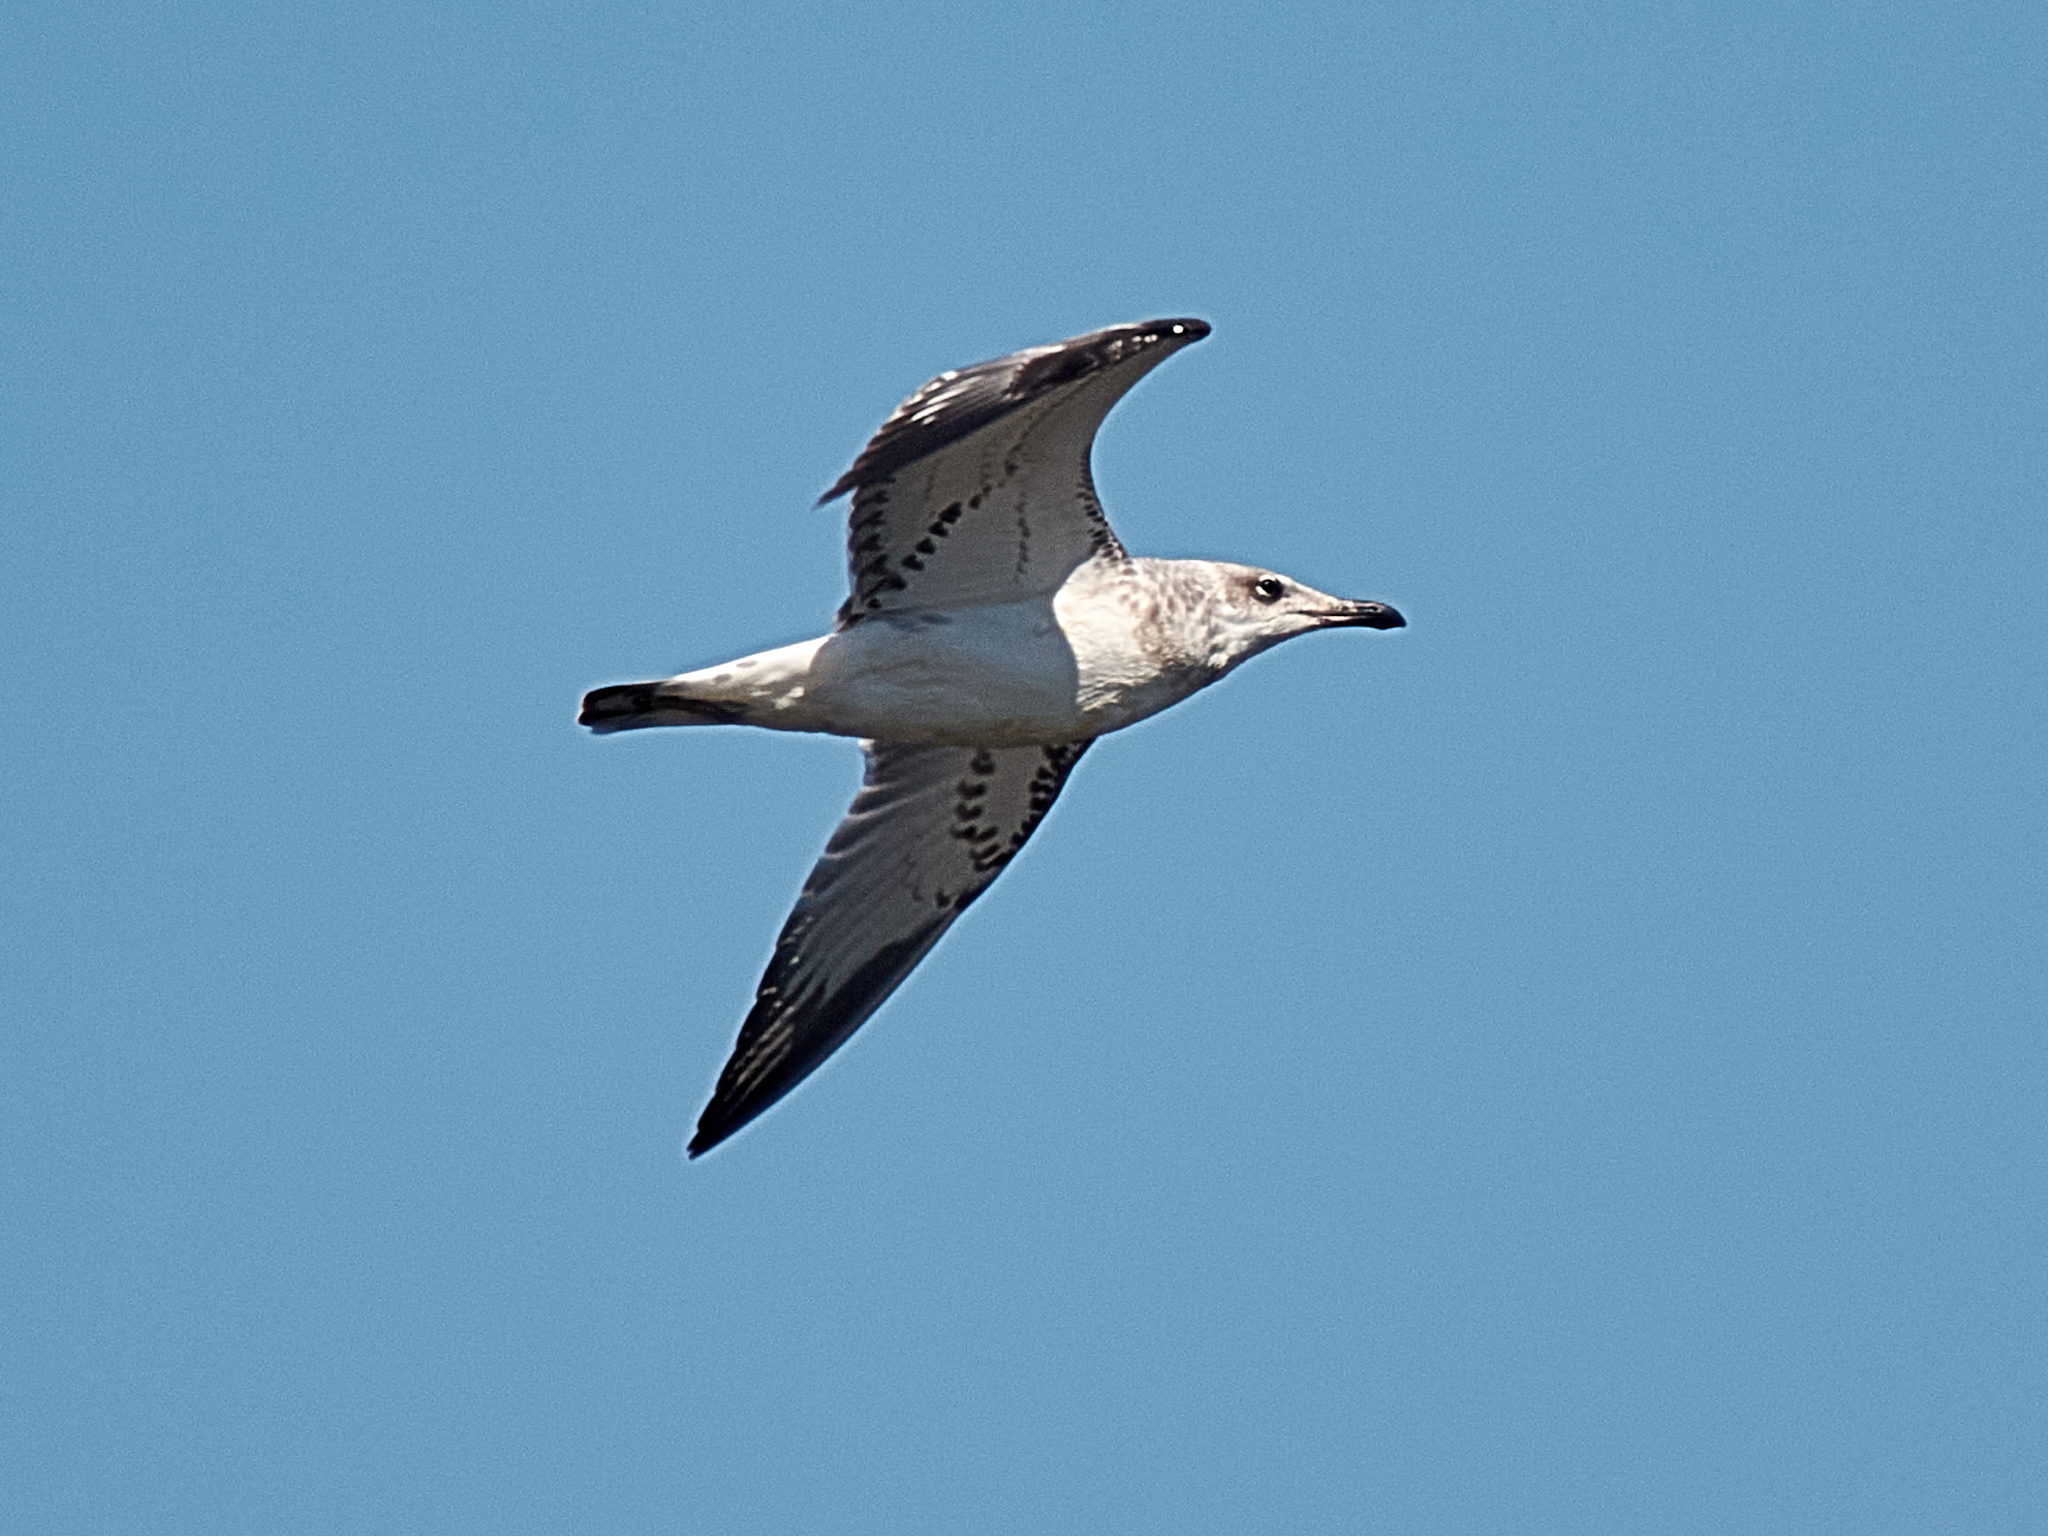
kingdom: Animalia
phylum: Chordata
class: Aves
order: Charadriiformes
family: Laridae
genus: Ichthyaetus
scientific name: Ichthyaetus ichthyaetus
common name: Pallas's gull
